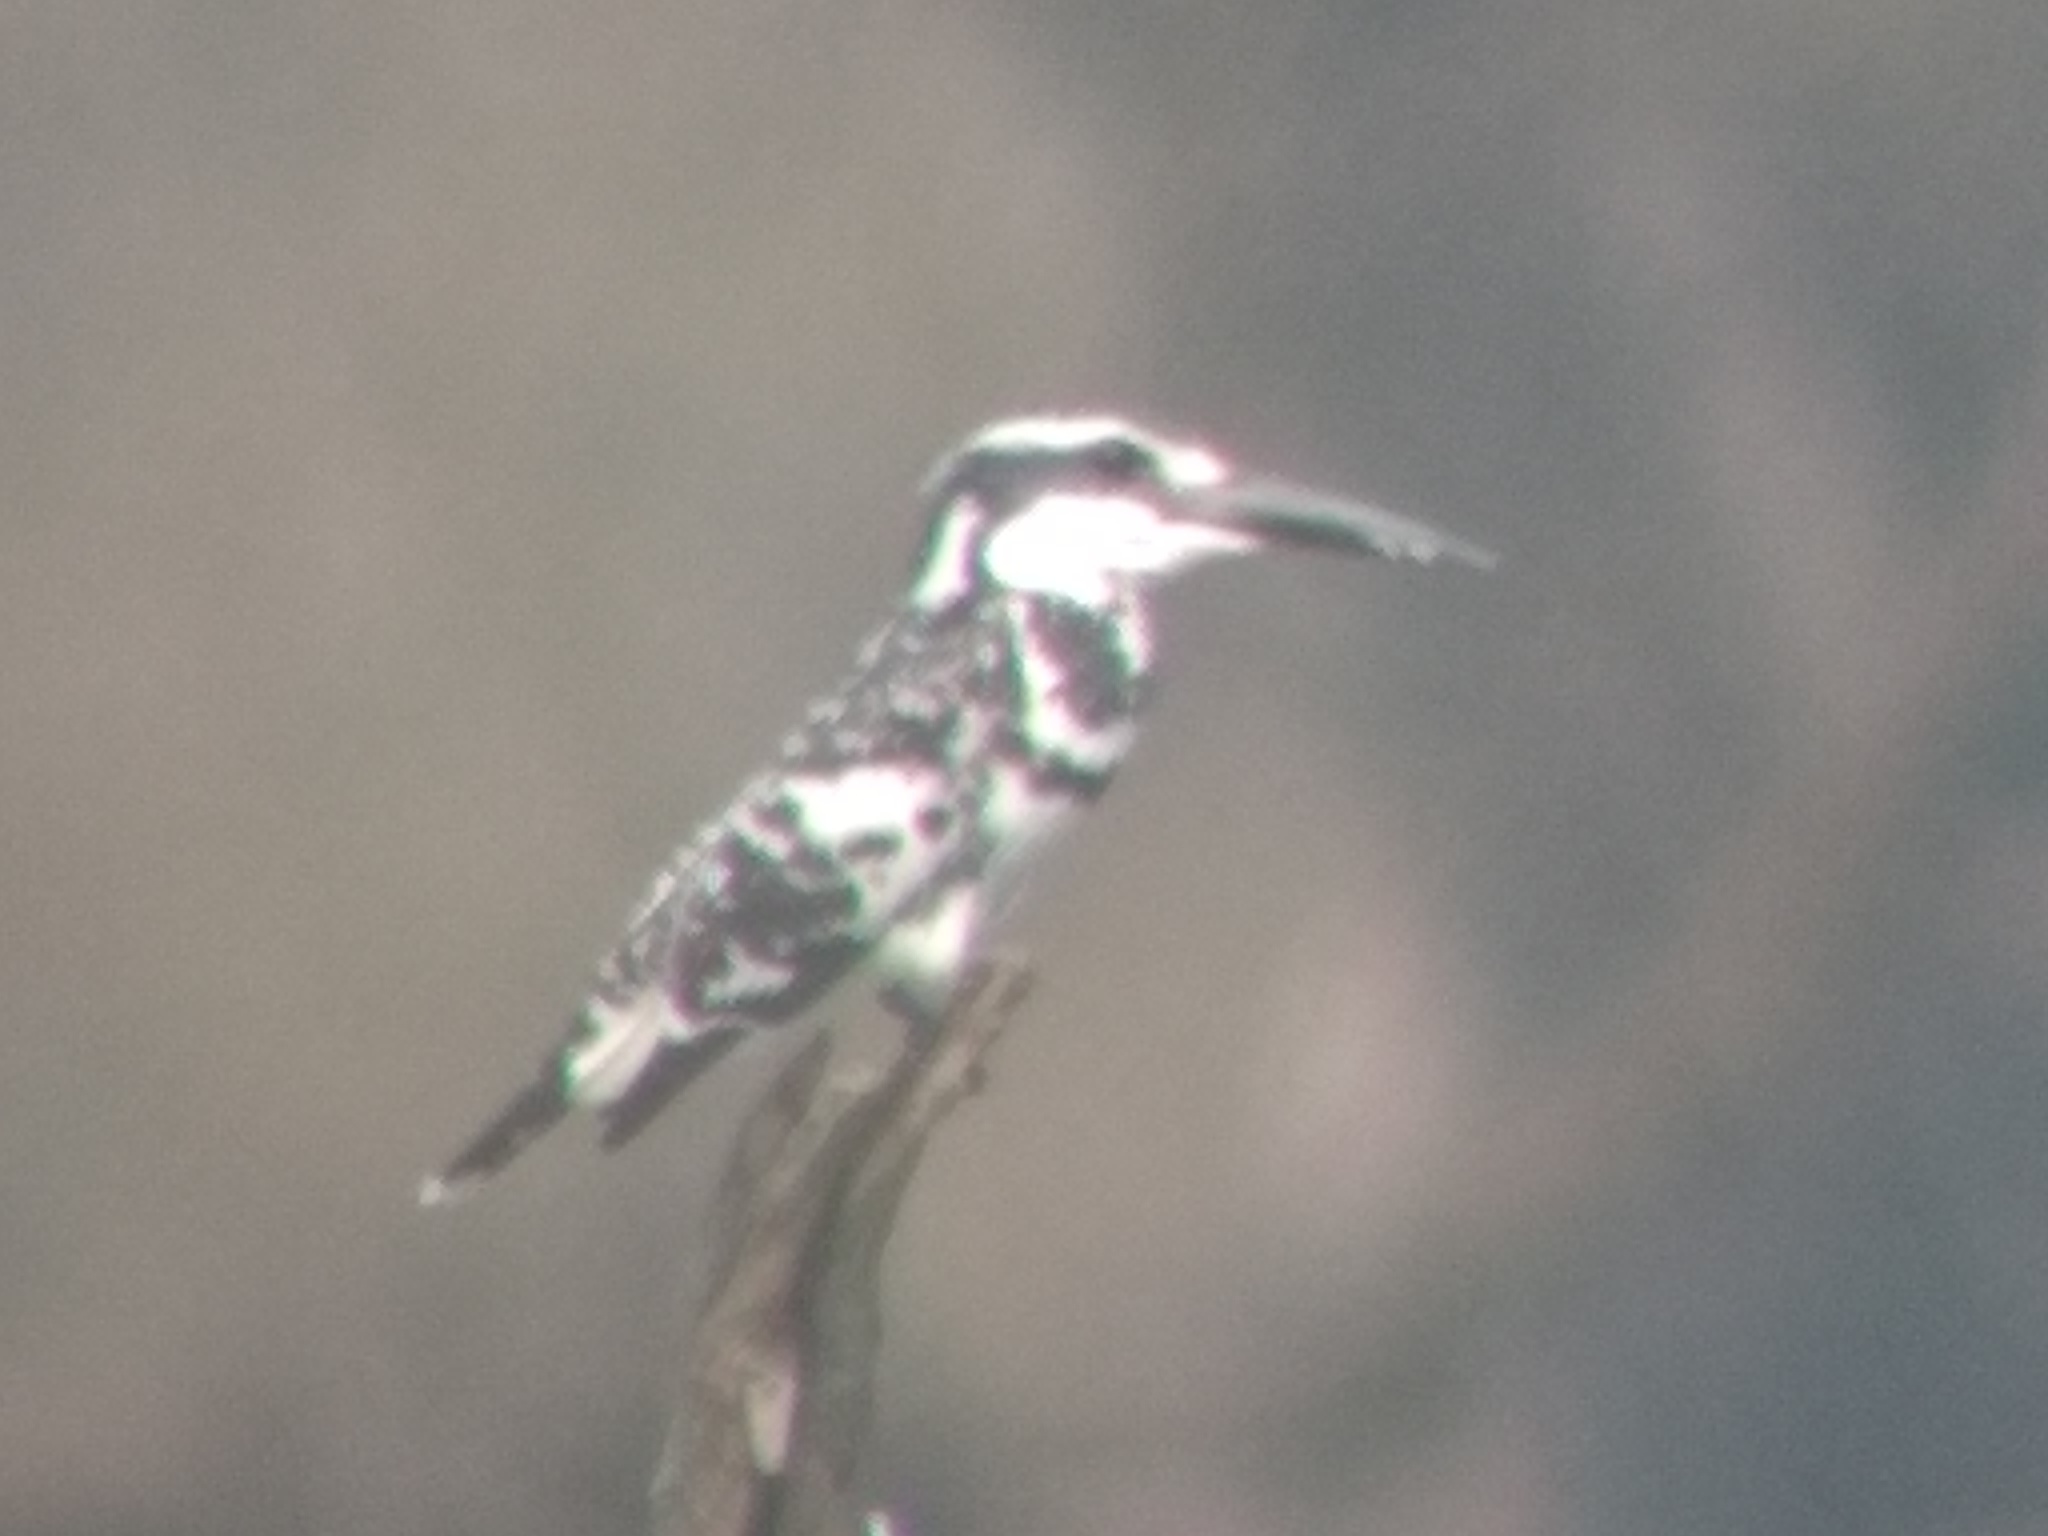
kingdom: Animalia
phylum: Chordata
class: Aves
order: Coraciiformes
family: Alcedinidae
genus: Ceryle
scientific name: Ceryle rudis
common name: Pied kingfisher
